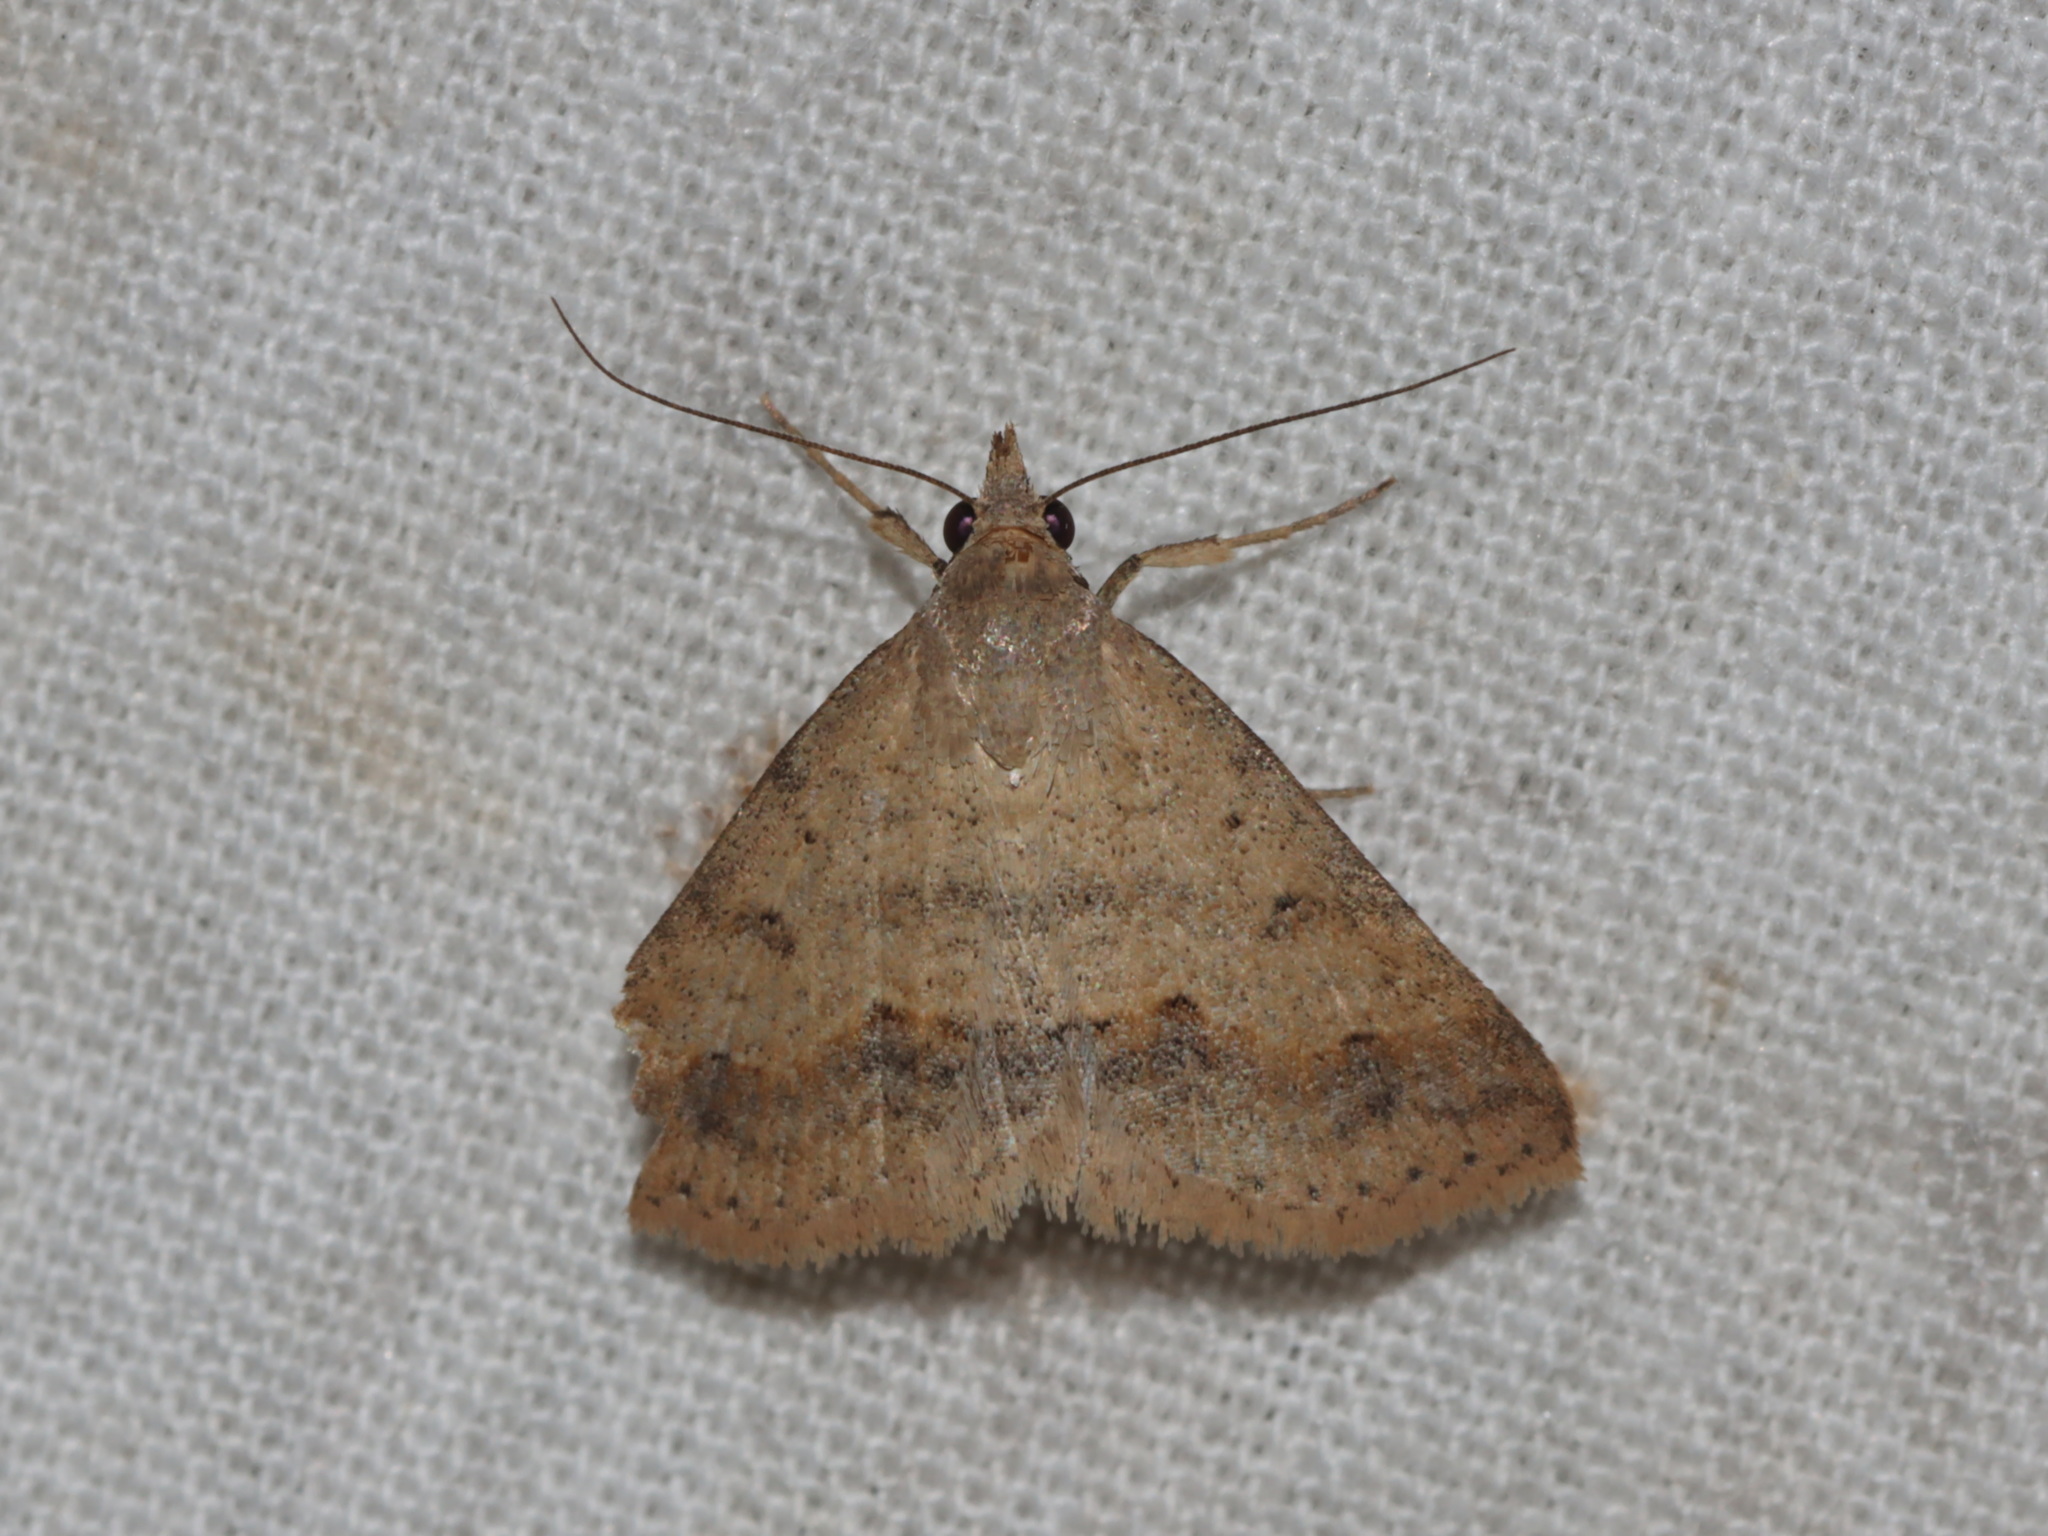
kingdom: Animalia
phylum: Arthropoda
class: Insecta
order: Lepidoptera
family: Erebidae
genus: Gesonia
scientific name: Gesonia obeditalis
